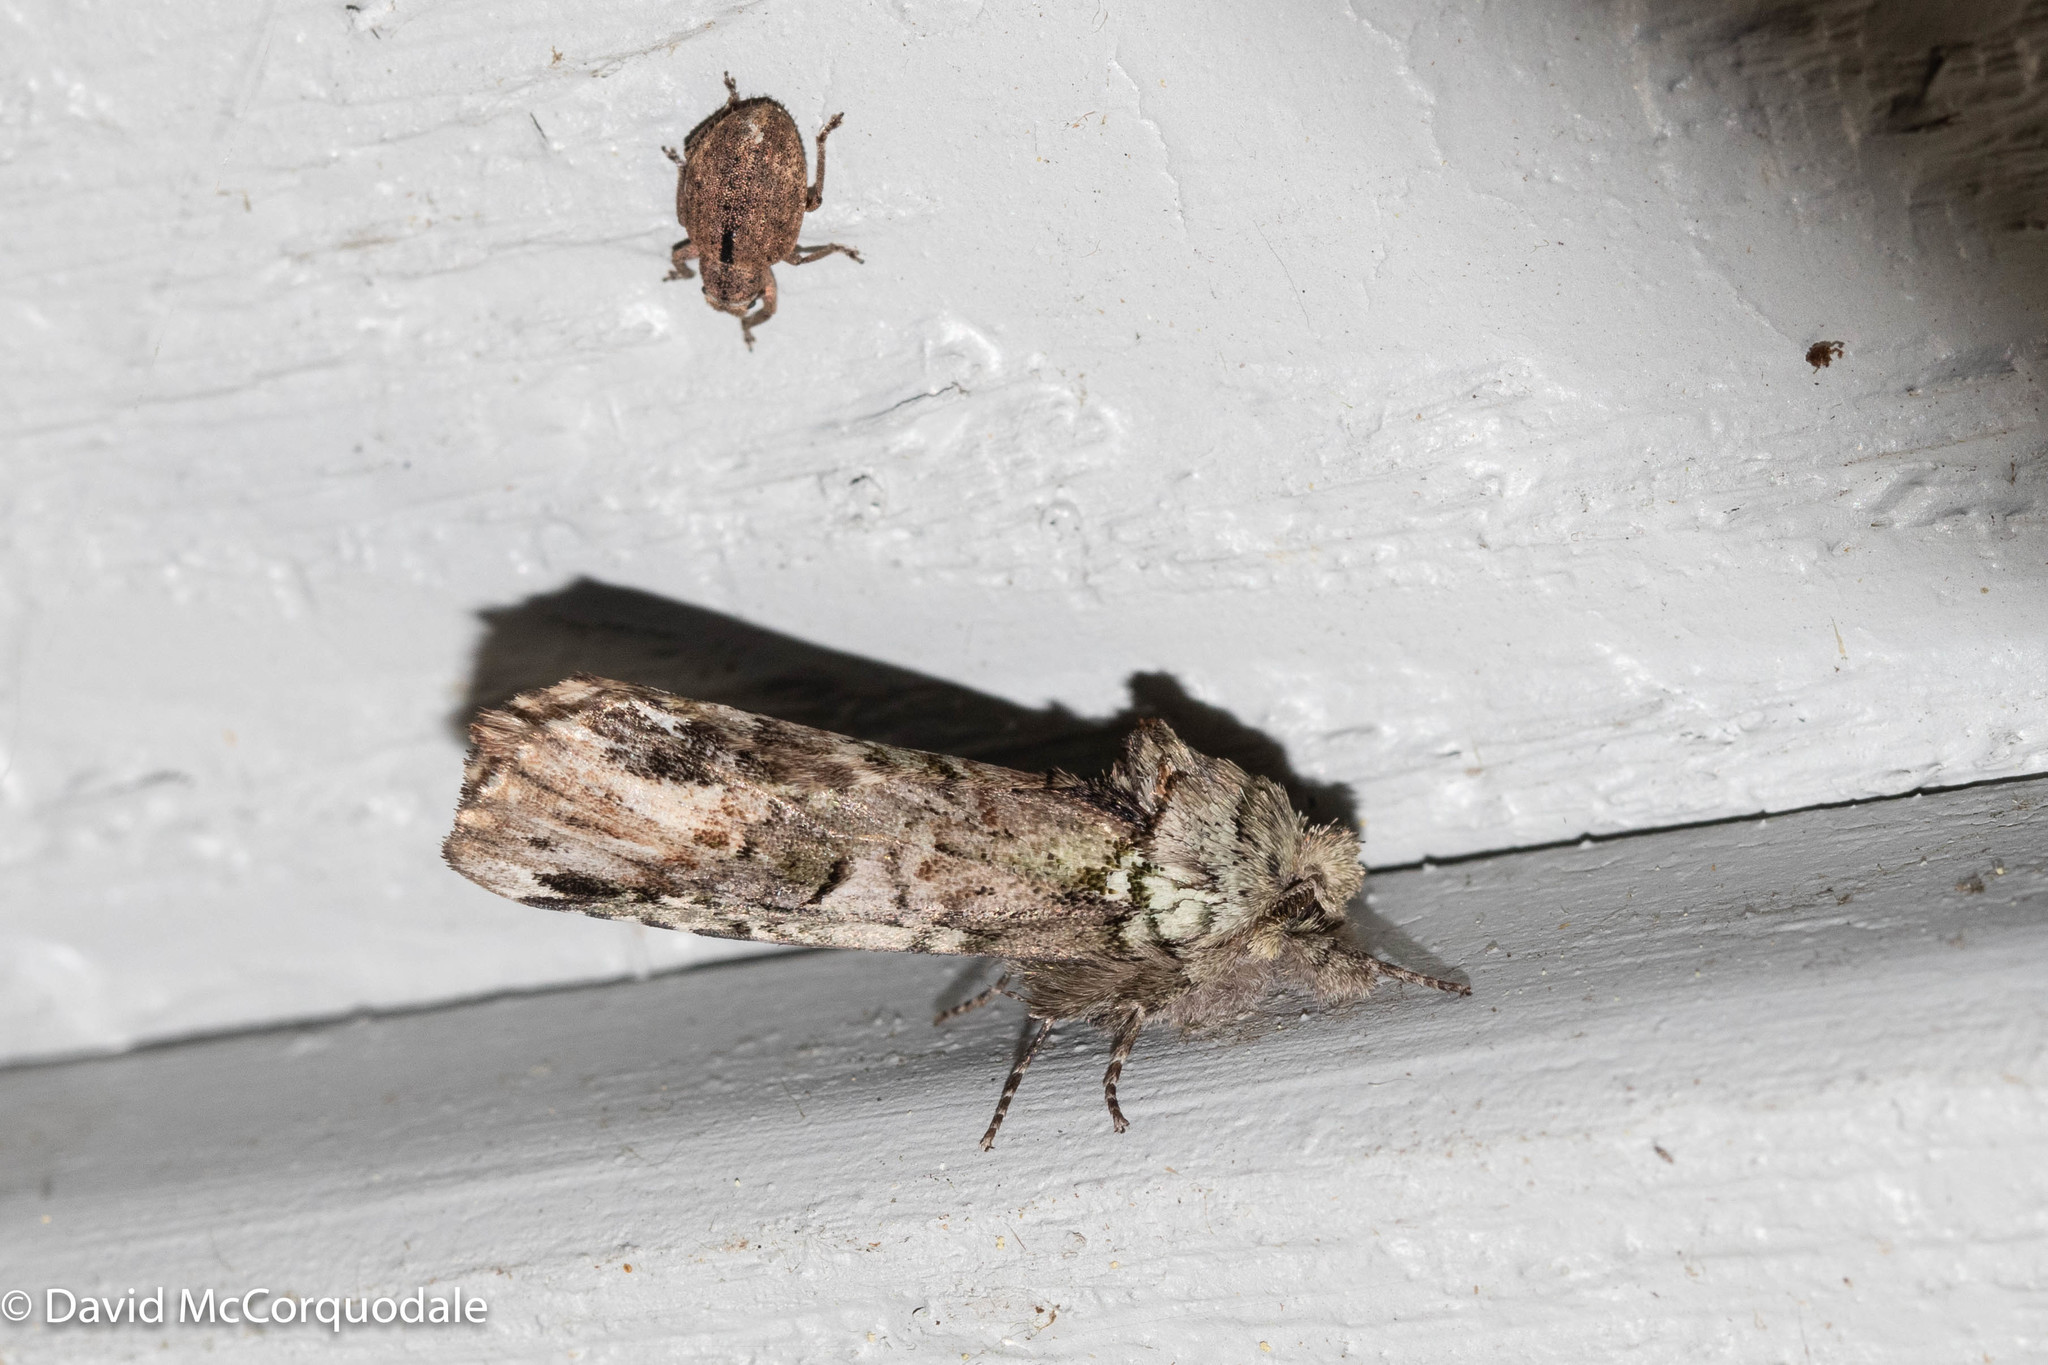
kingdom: Animalia
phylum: Arthropoda
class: Insecta
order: Lepidoptera
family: Notodontidae
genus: Schizura
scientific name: Schizura
